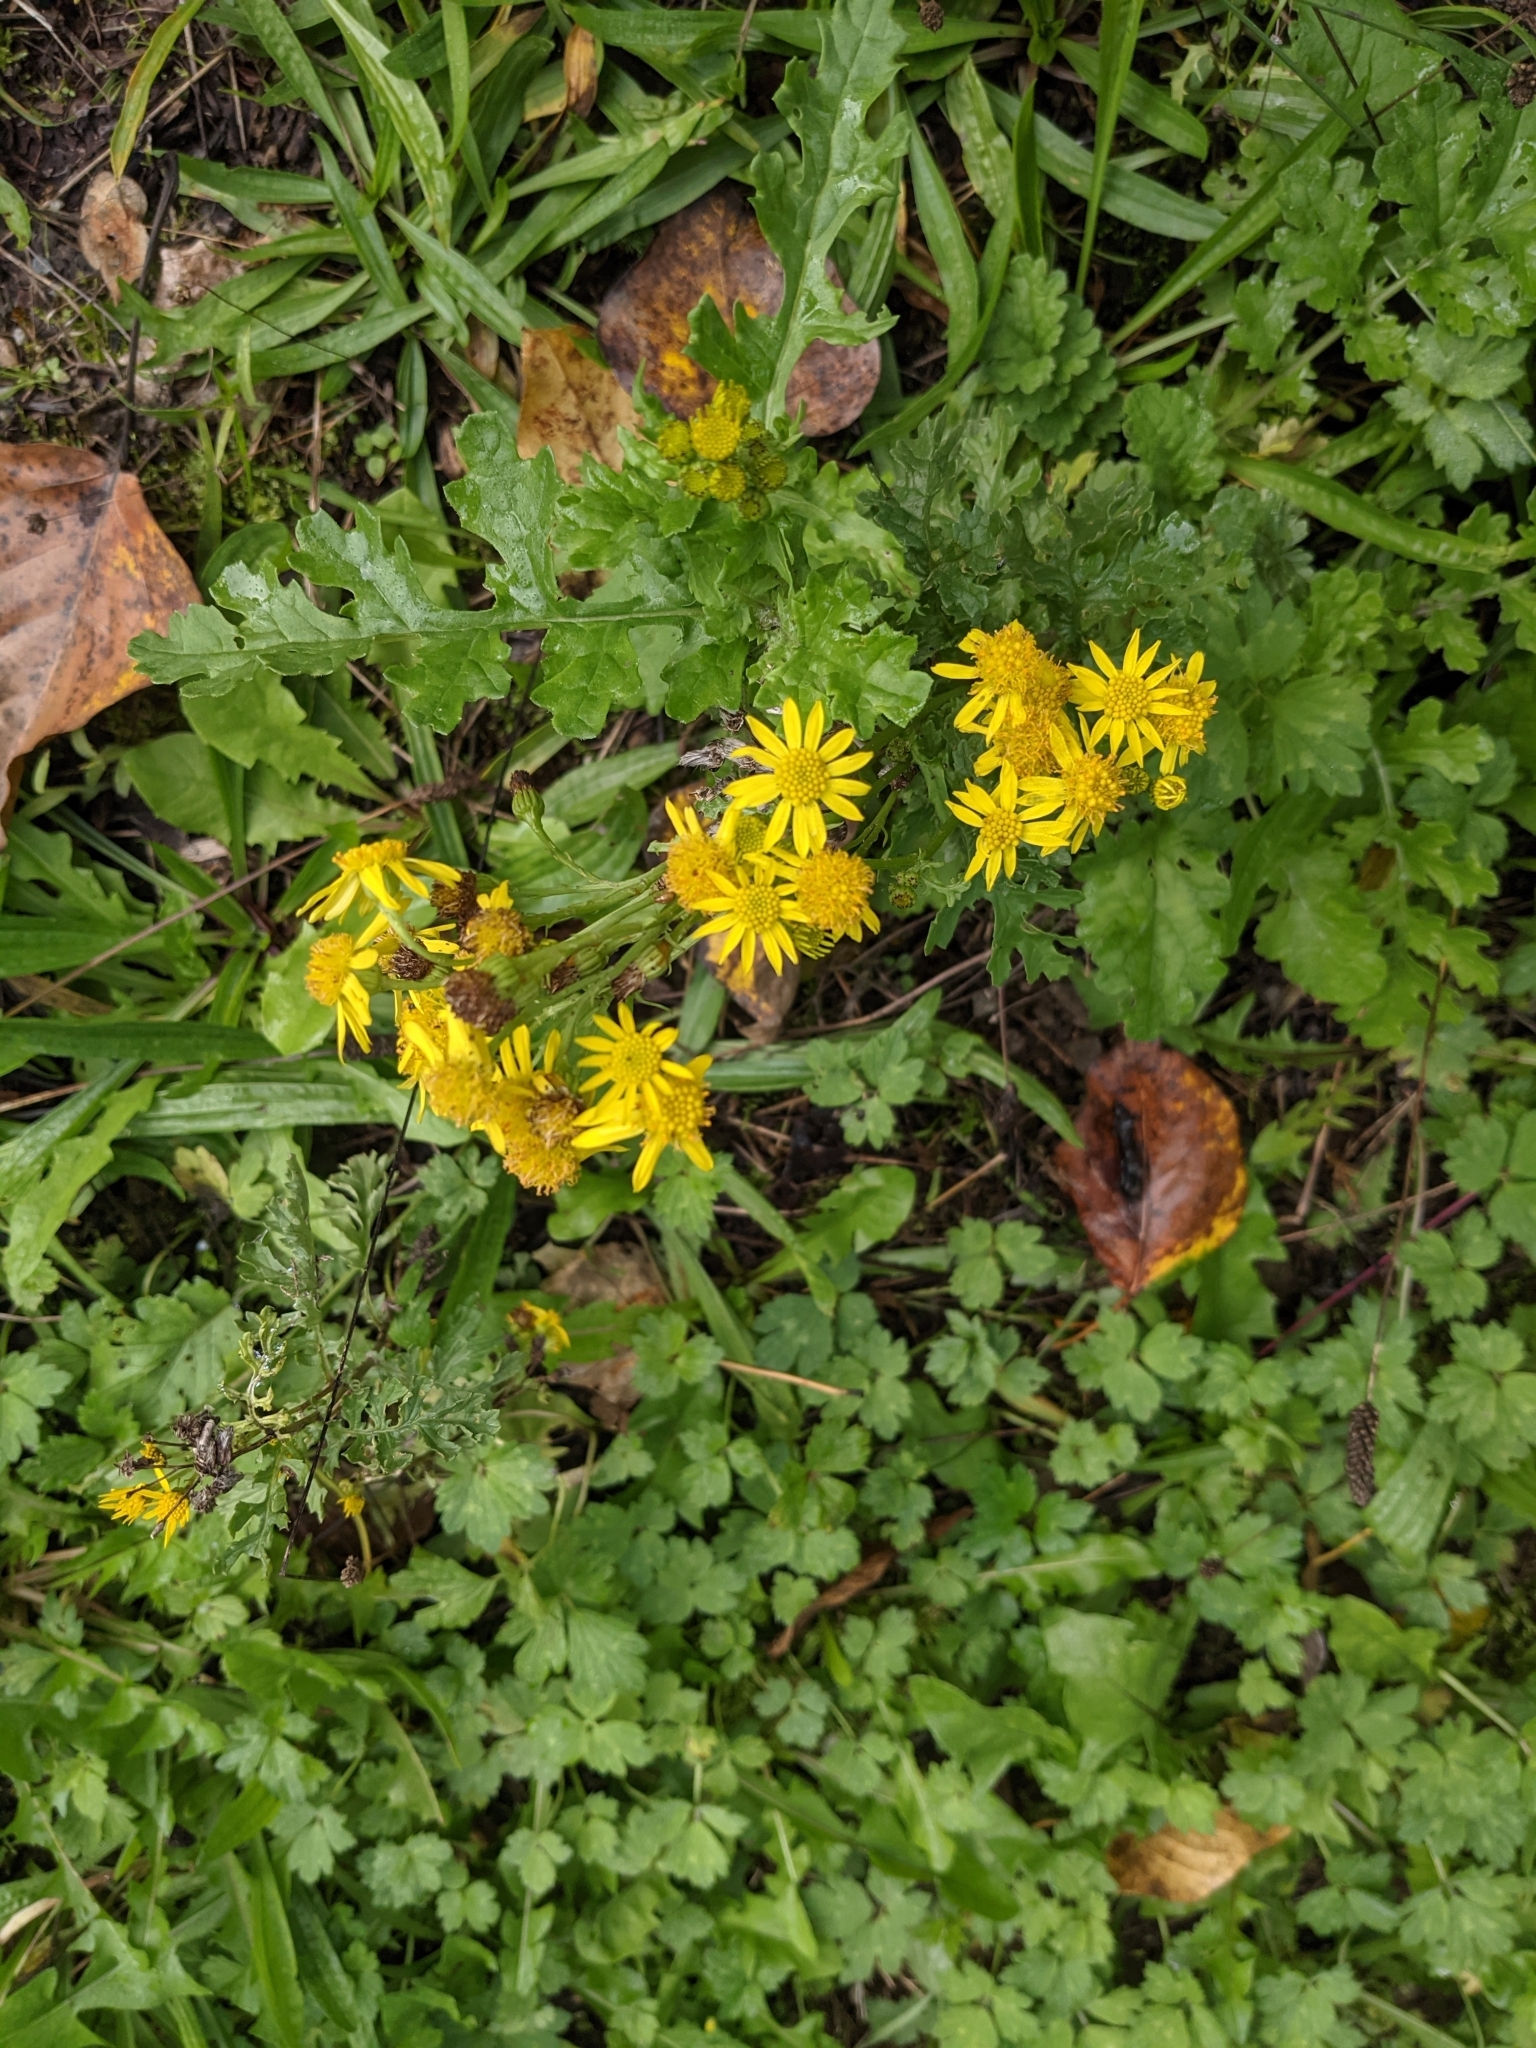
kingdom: Plantae
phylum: Tracheophyta
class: Magnoliopsida
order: Asterales
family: Asteraceae
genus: Jacobaea
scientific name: Jacobaea vulgaris
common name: Stinking willie
